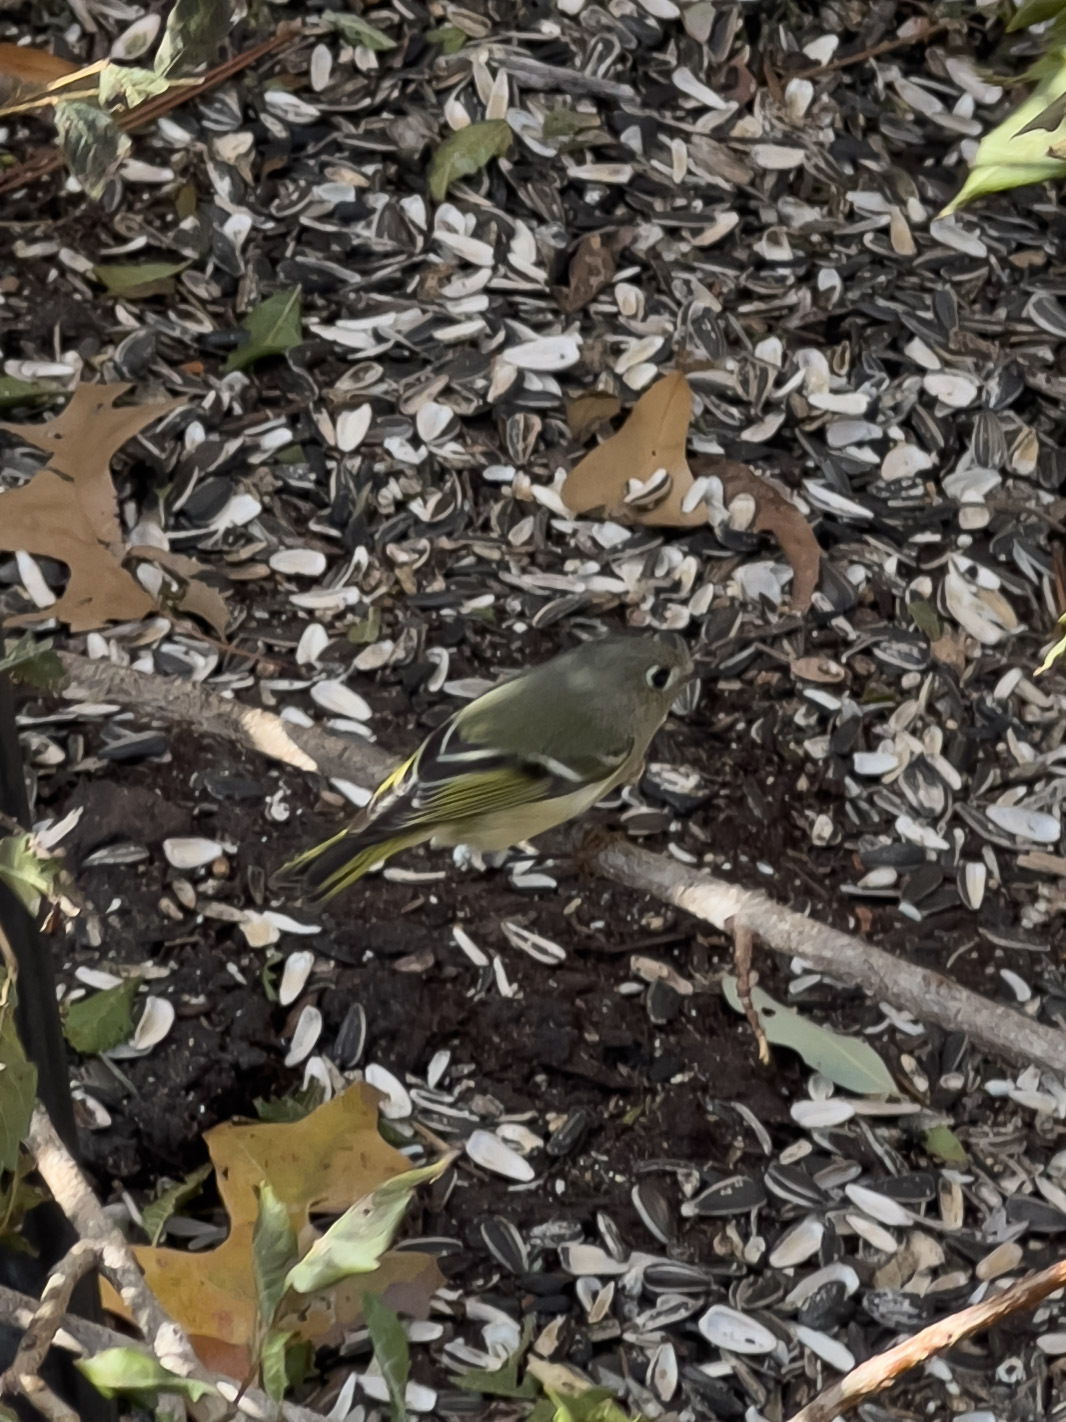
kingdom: Animalia
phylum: Chordata
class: Aves
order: Passeriformes
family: Regulidae
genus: Regulus
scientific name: Regulus calendula
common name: Ruby-crowned kinglet
